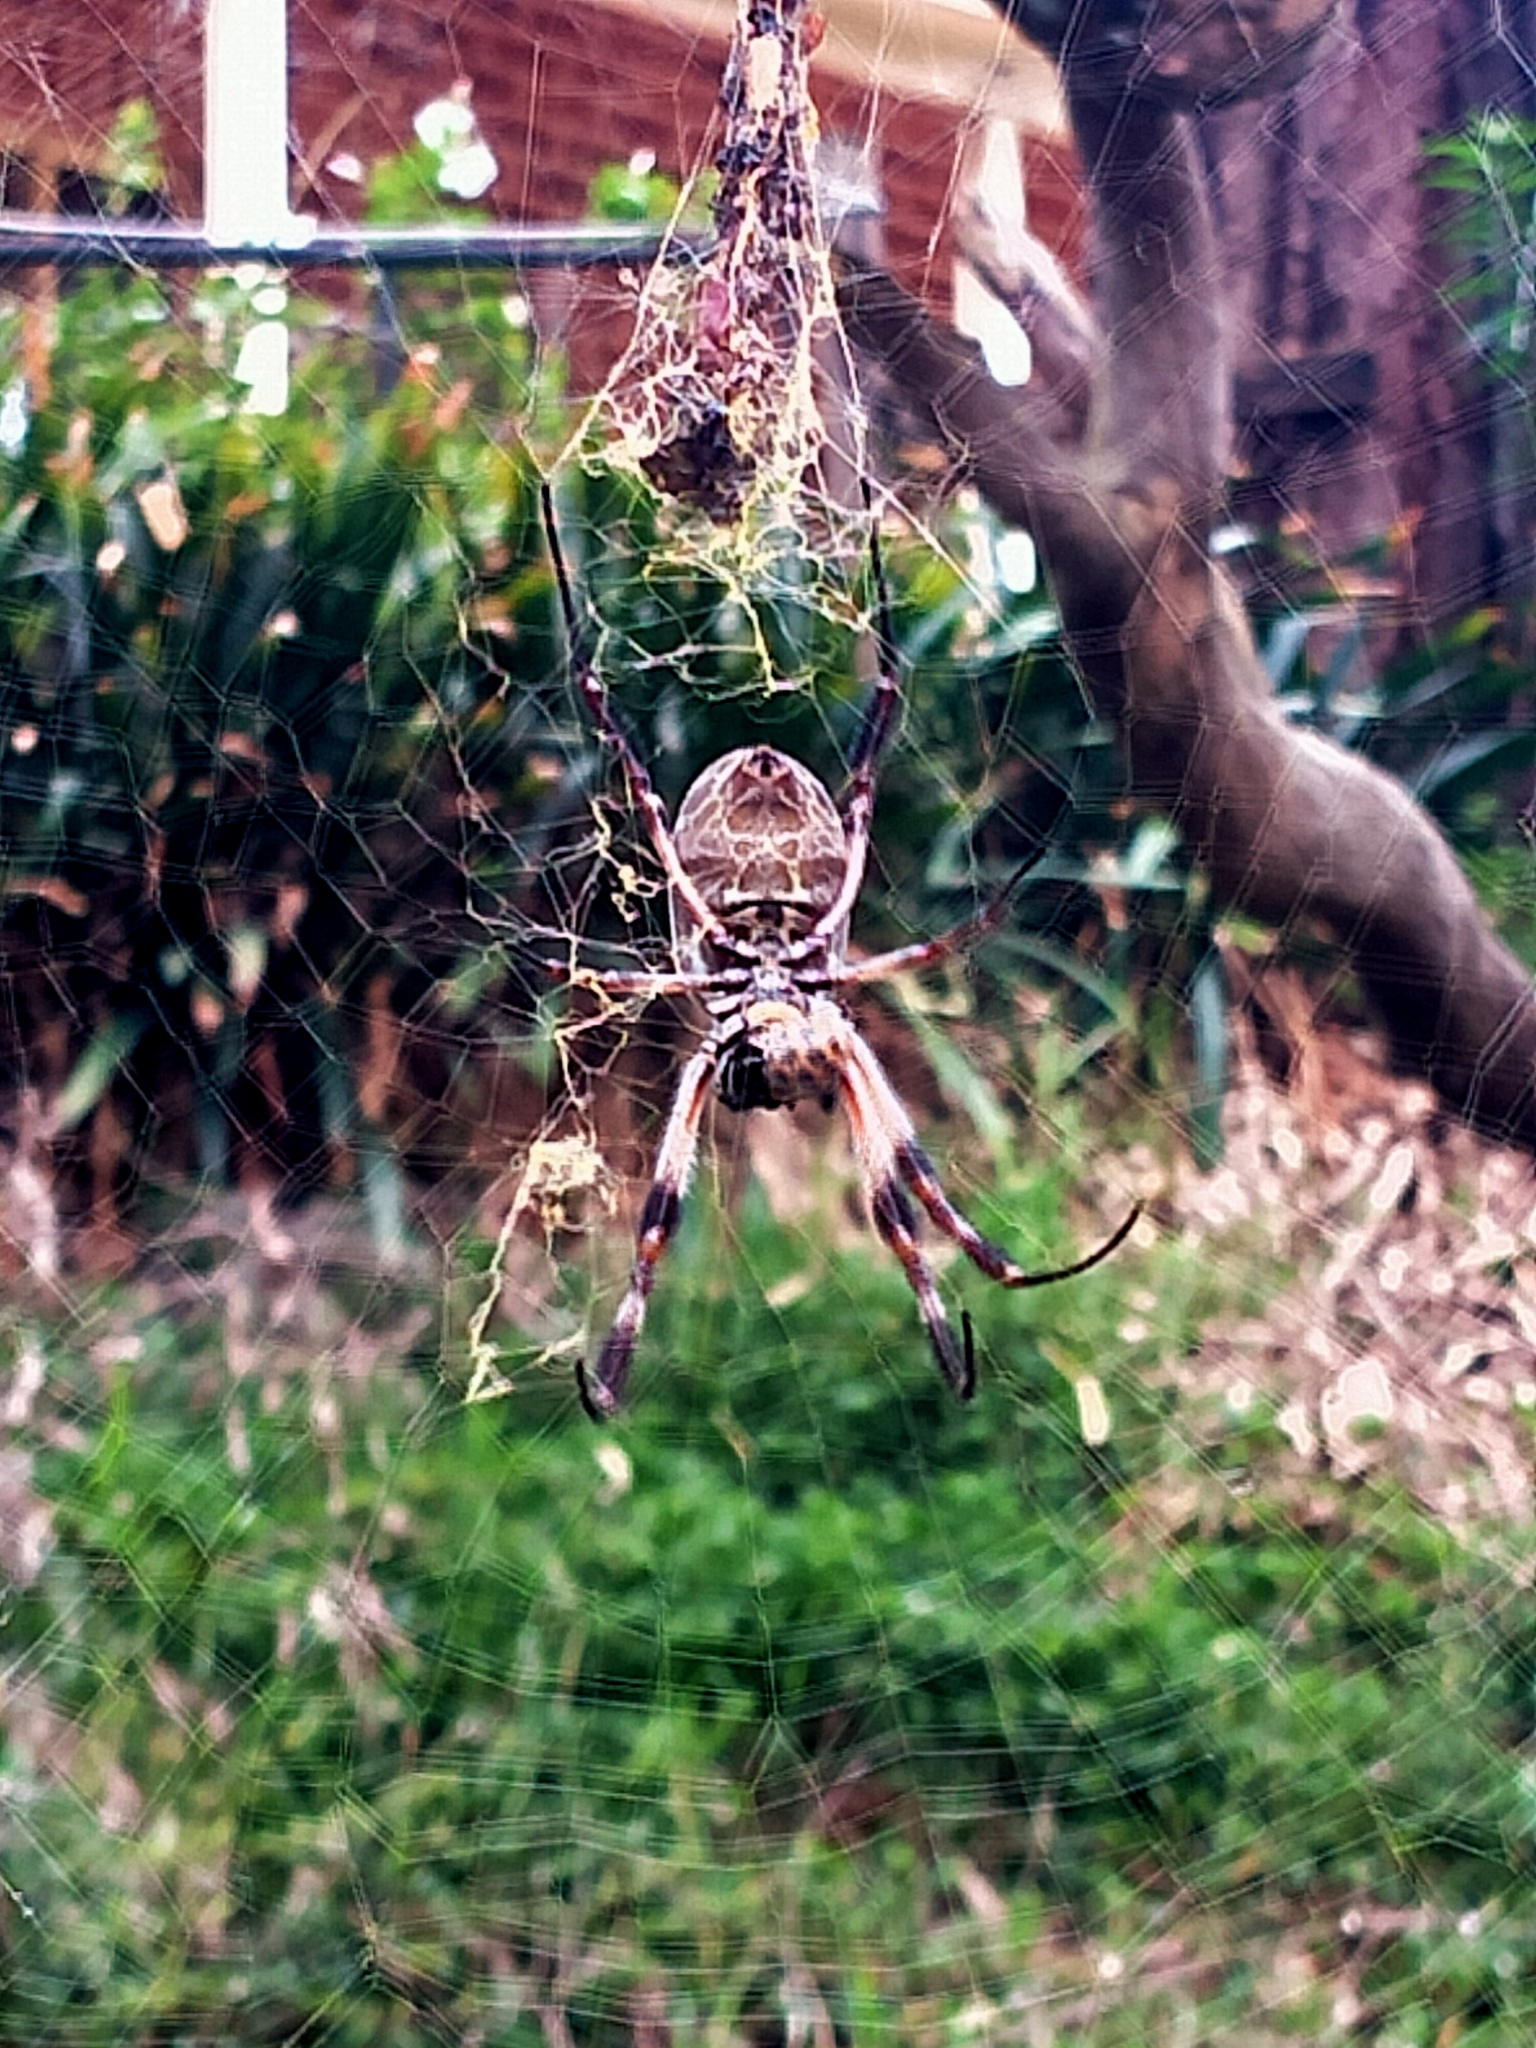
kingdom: Animalia
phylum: Arthropoda
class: Arachnida
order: Araneae
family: Araneidae
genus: Trichonephila
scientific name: Trichonephila edulis
